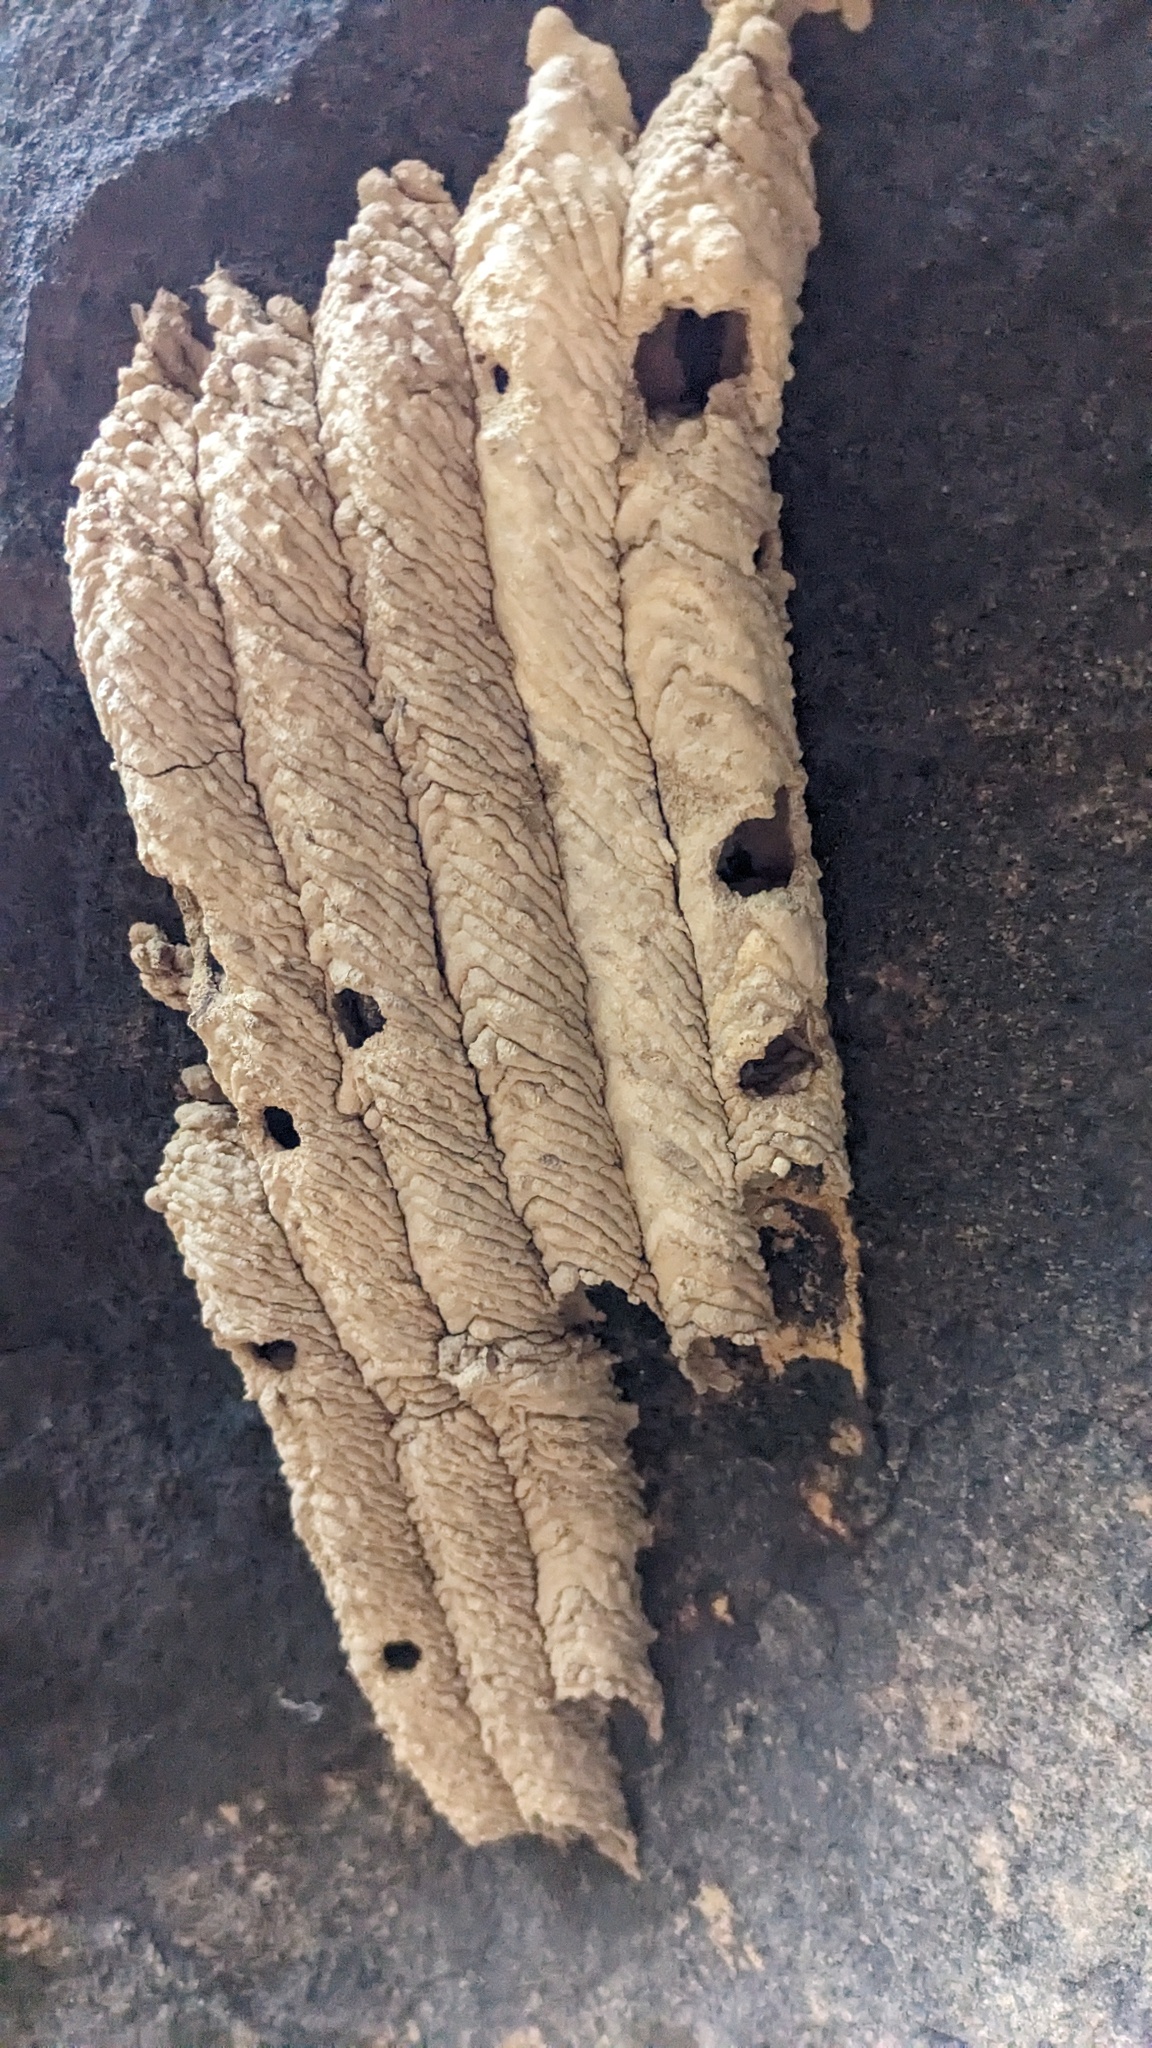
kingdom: Animalia
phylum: Arthropoda
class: Insecta
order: Hymenoptera
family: Crabronidae
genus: Trypoxylon
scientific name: Trypoxylon politum
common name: Organ-pipe mud-dauber wasp
